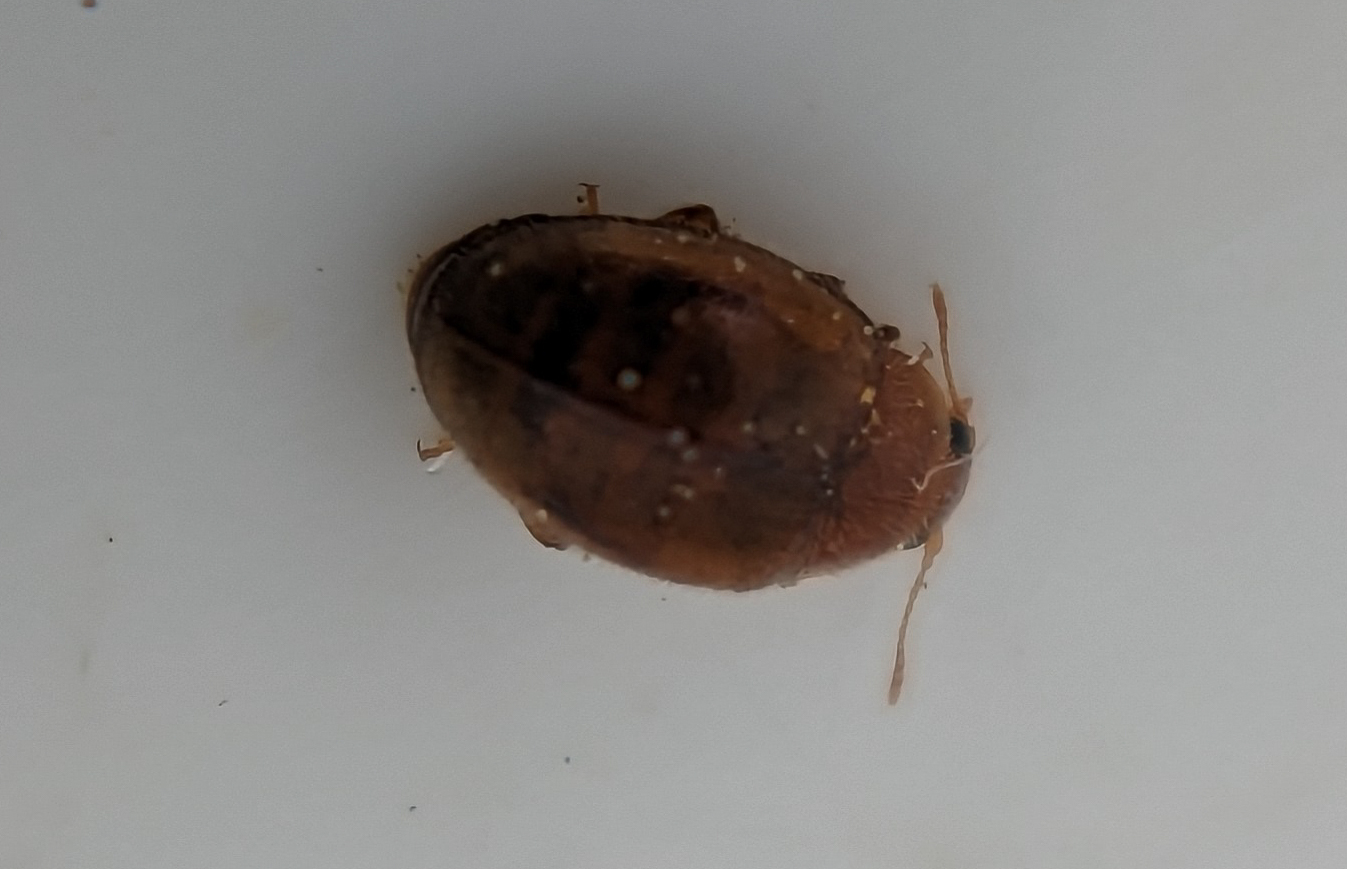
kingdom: Animalia
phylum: Arthropoda
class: Insecta
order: Coleoptera
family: Coccinellidae
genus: Rhyzobius
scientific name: Rhyzobius chrysomeloides
